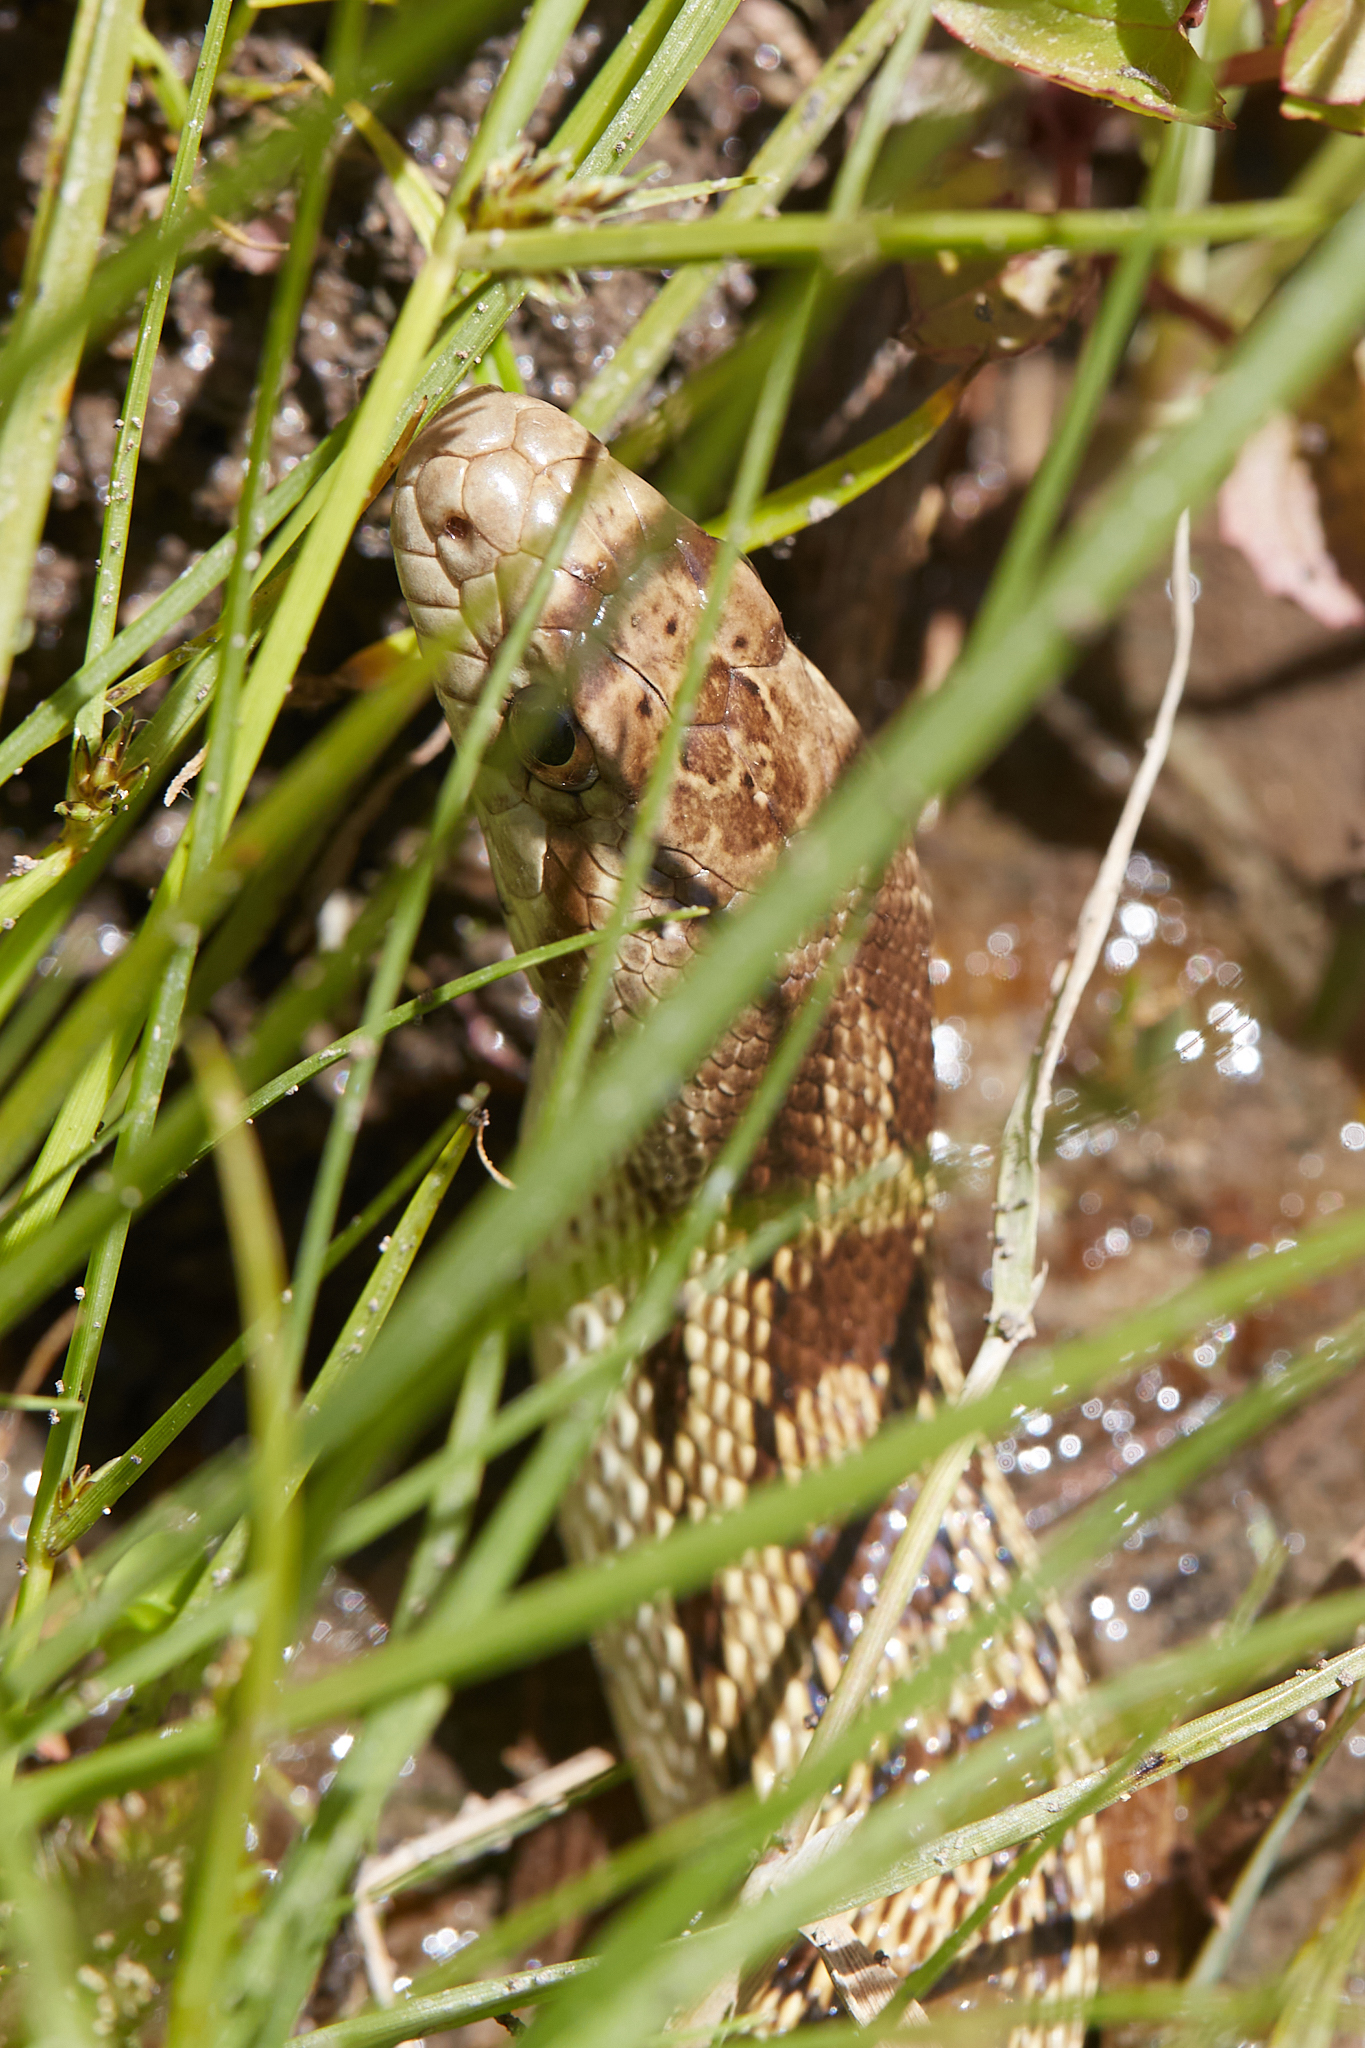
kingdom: Animalia
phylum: Chordata
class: Squamata
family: Colubridae
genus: Pituophis
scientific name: Pituophis catenifer
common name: Gopher snake
